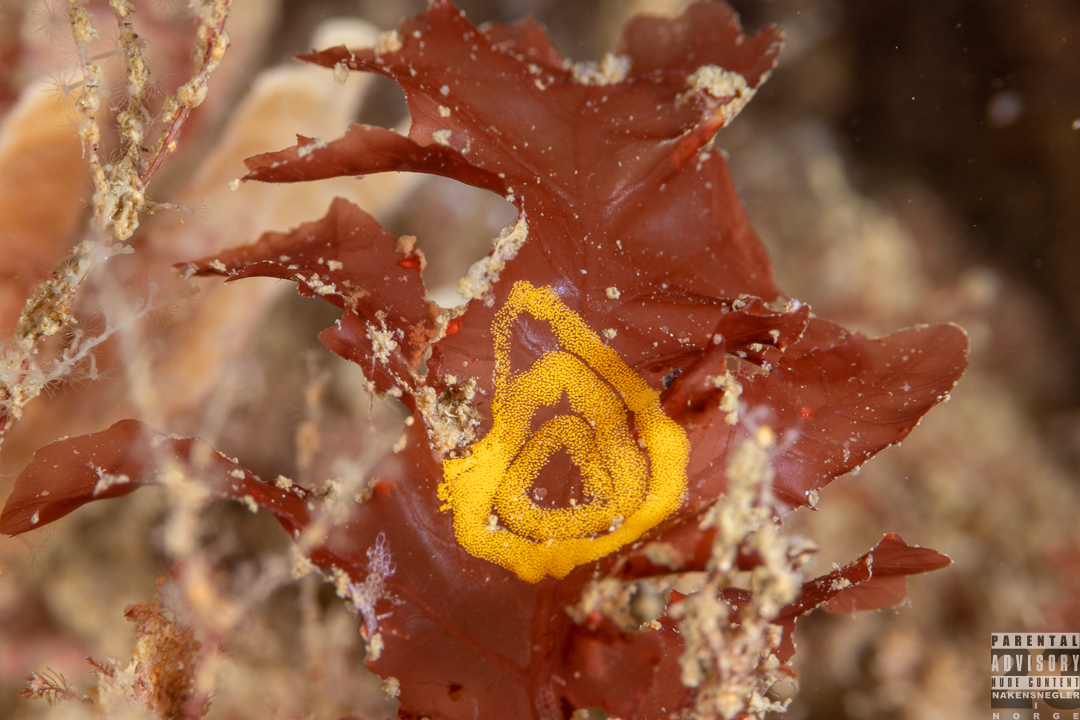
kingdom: Animalia
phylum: Mollusca
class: Gastropoda
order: Nudibranchia
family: Polyceridae
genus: Crimora
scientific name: Crimora papillata
